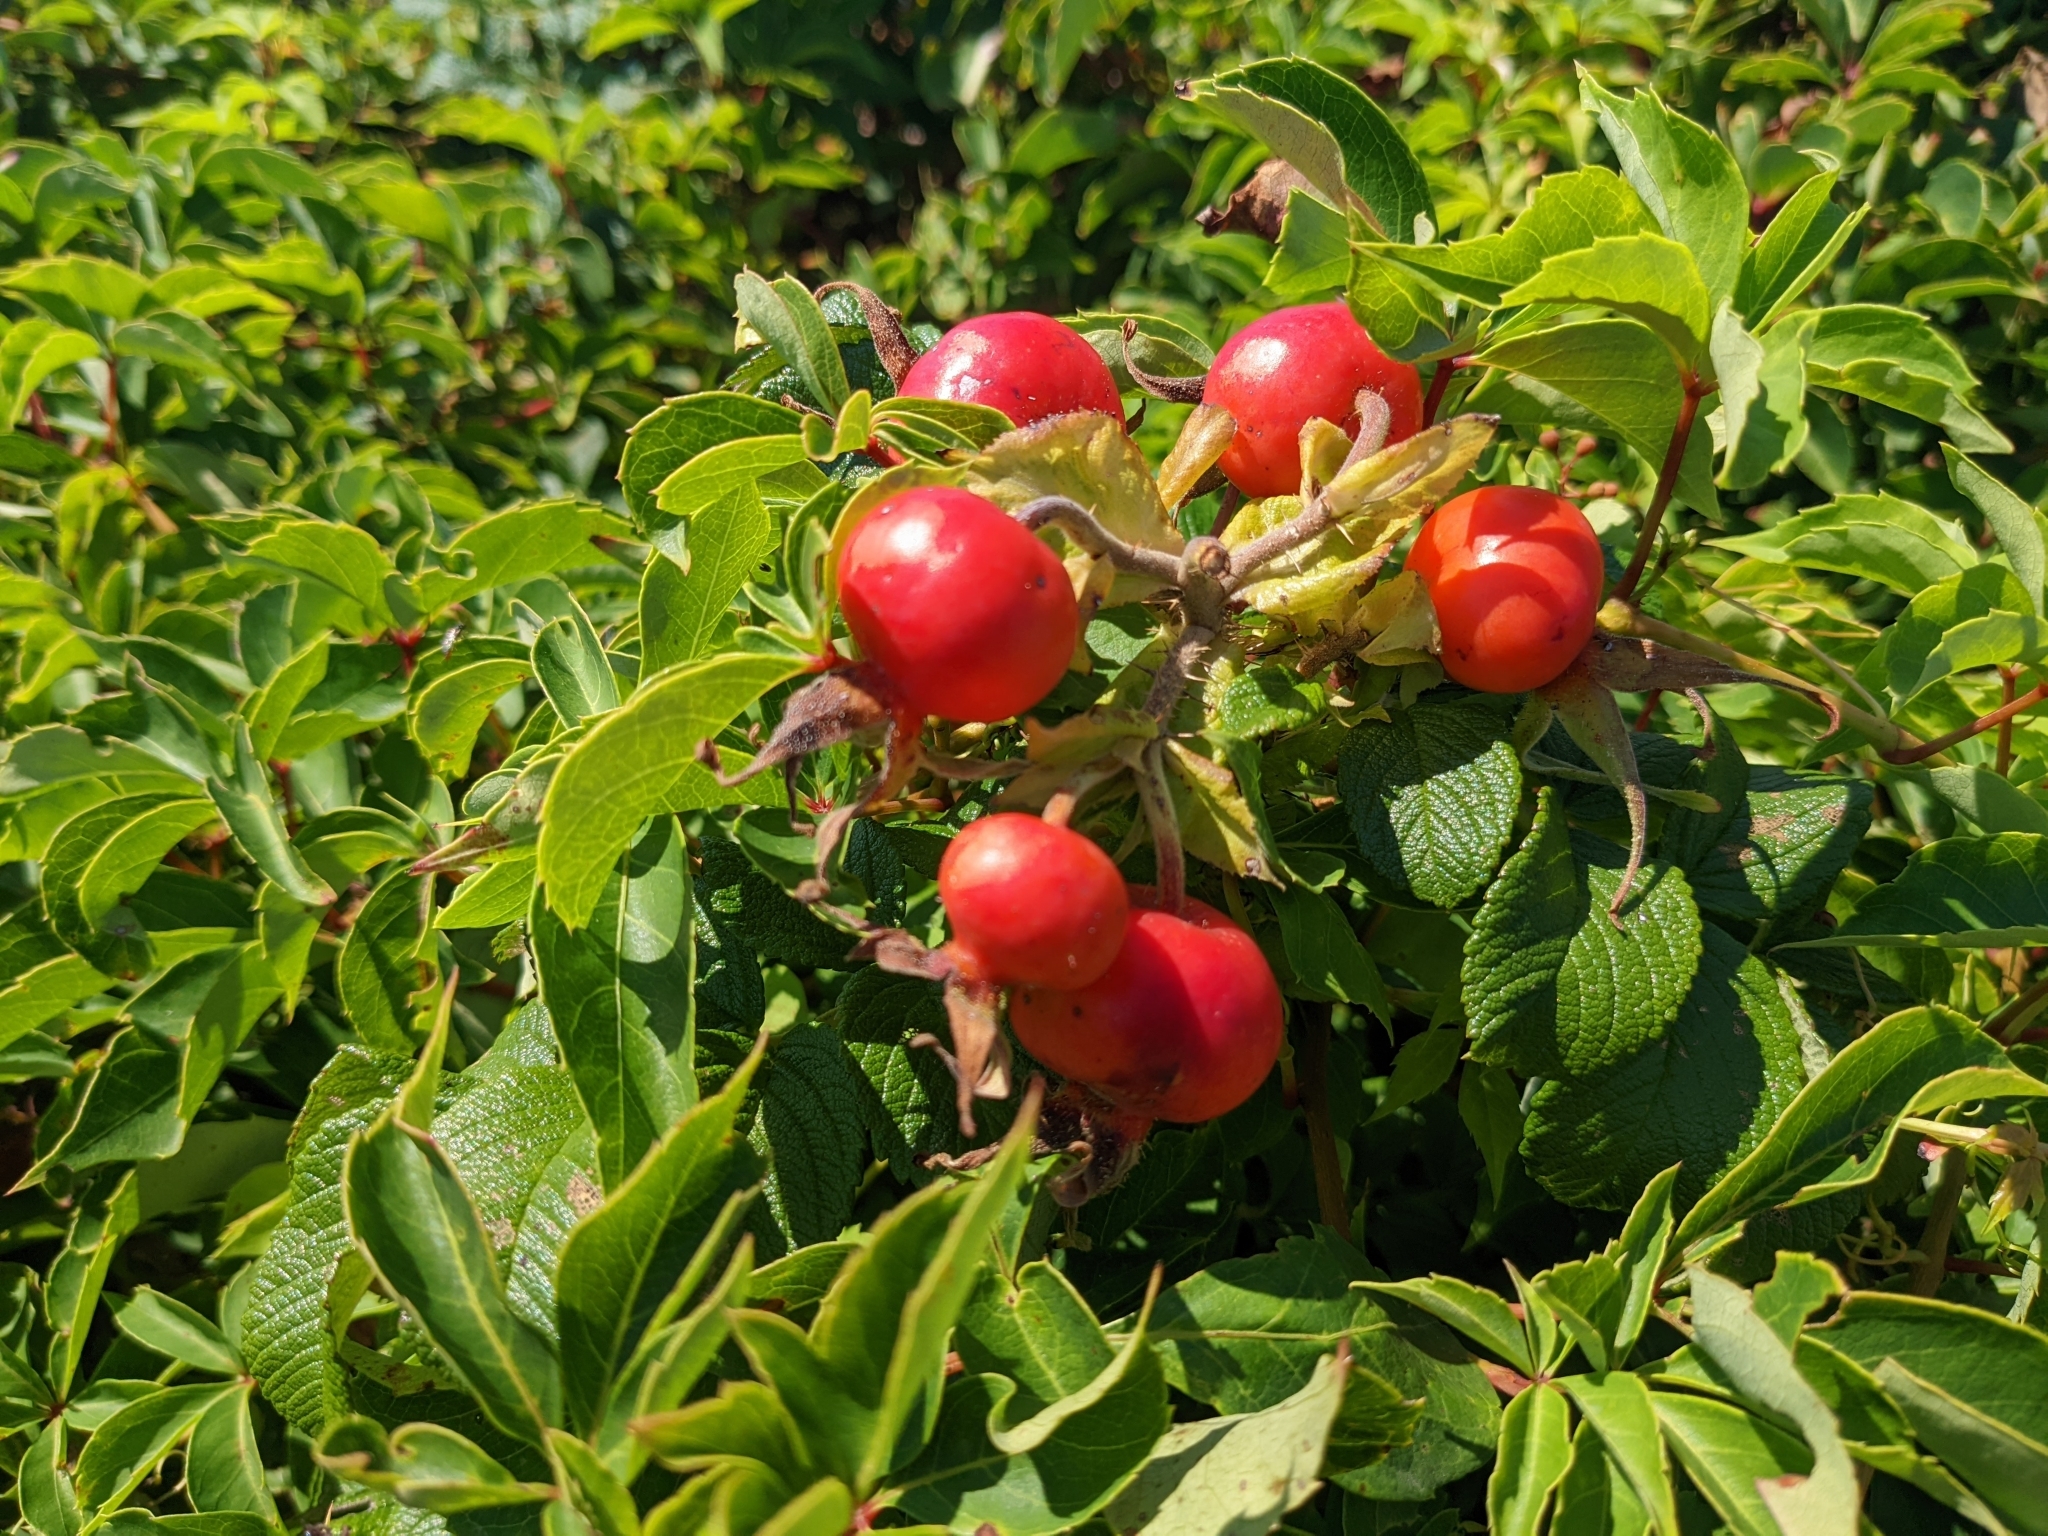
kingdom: Plantae
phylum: Tracheophyta
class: Magnoliopsida
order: Rosales
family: Rosaceae
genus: Rosa
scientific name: Rosa rugosa
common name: Japanese rose
